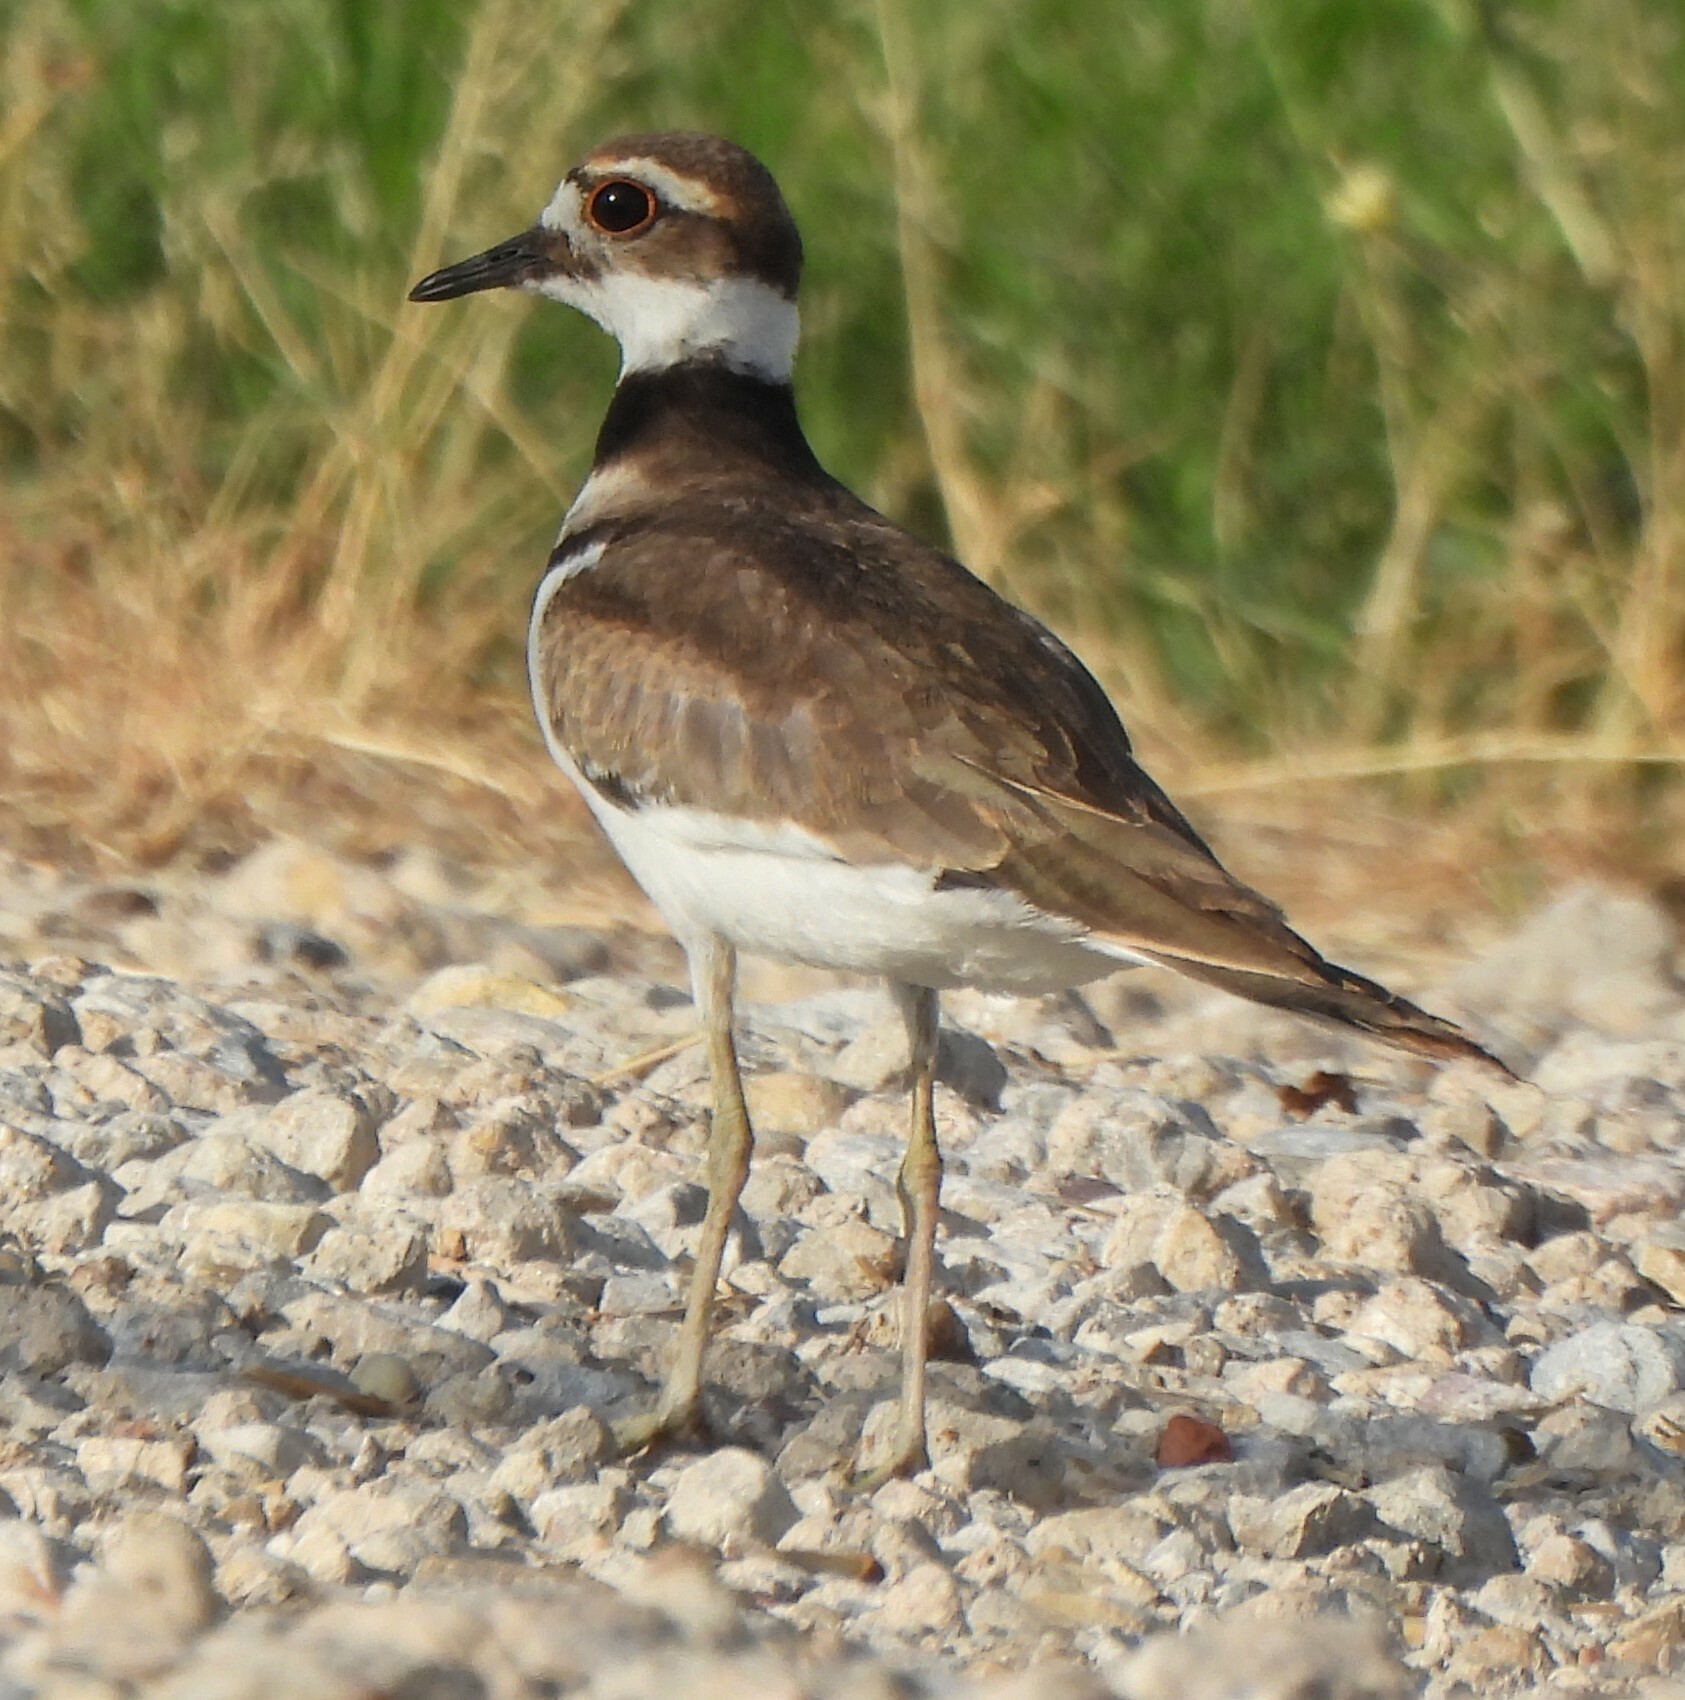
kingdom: Animalia
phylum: Chordata
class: Aves
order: Charadriiformes
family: Charadriidae
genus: Charadrius
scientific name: Charadrius vociferus
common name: Killdeer
